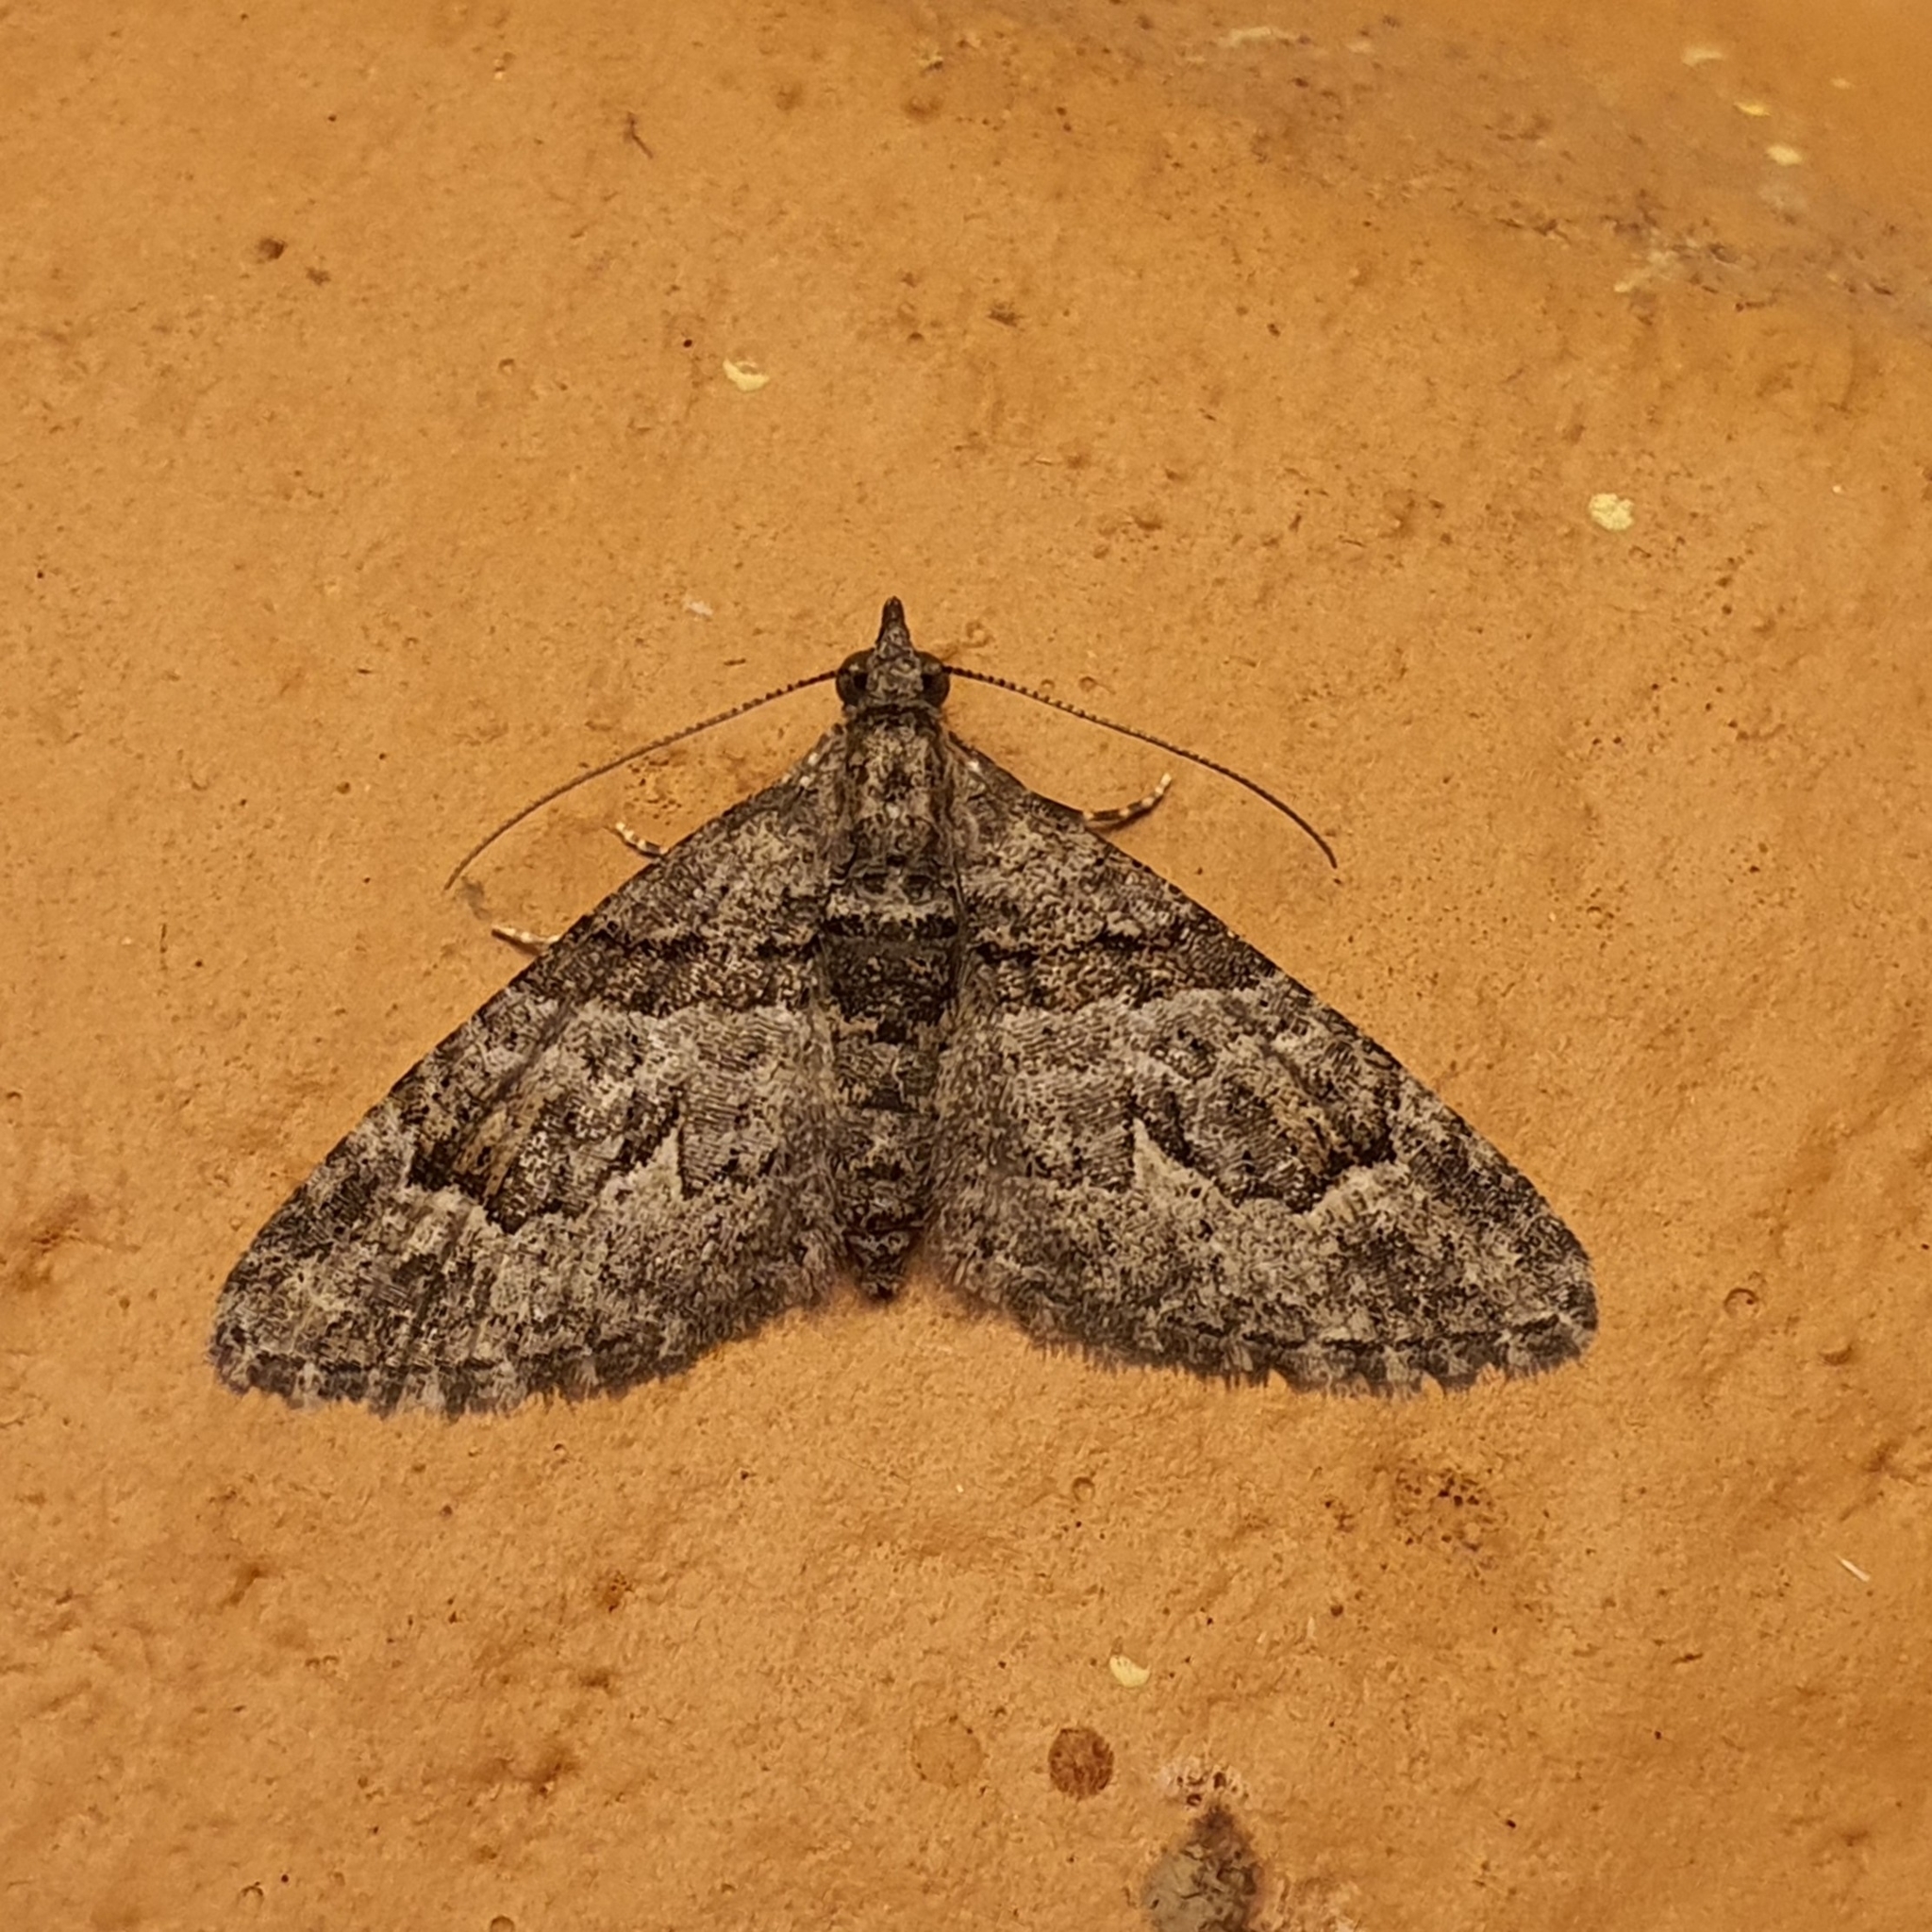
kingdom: Animalia
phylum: Arthropoda
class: Insecta
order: Lepidoptera
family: Geometridae
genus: Phrissogonus
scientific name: Phrissogonus laticostata
